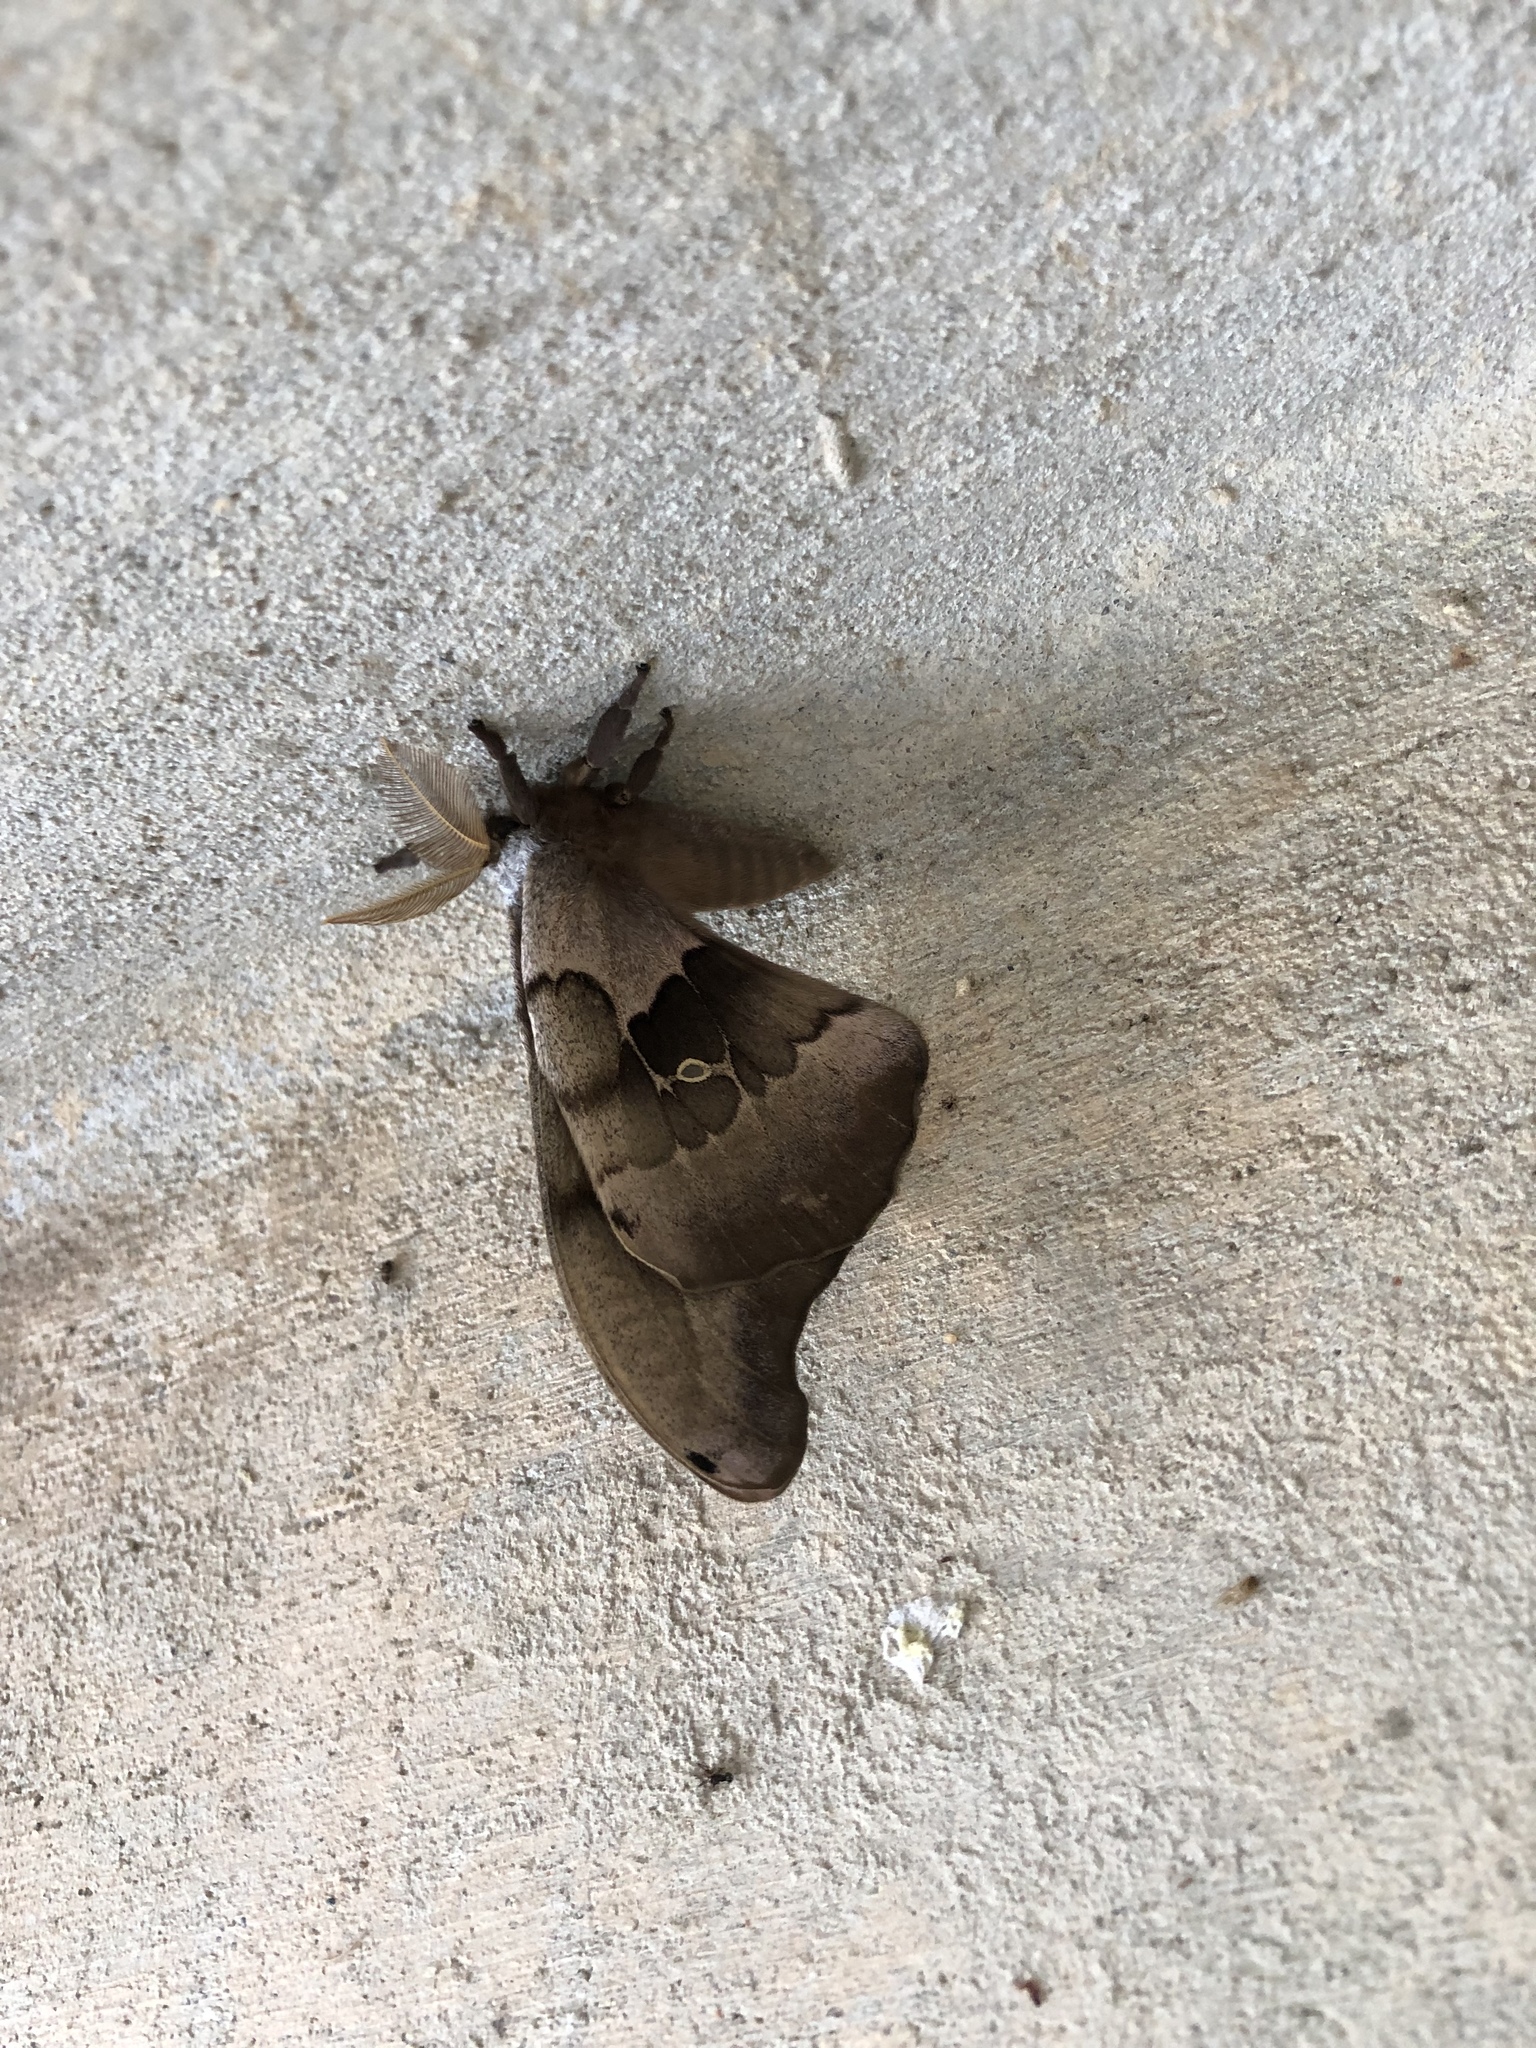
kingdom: Animalia
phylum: Arthropoda
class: Insecta
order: Lepidoptera
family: Saturniidae
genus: Antheraea
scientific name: Antheraea polyphemus
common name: Polyphemus moth
